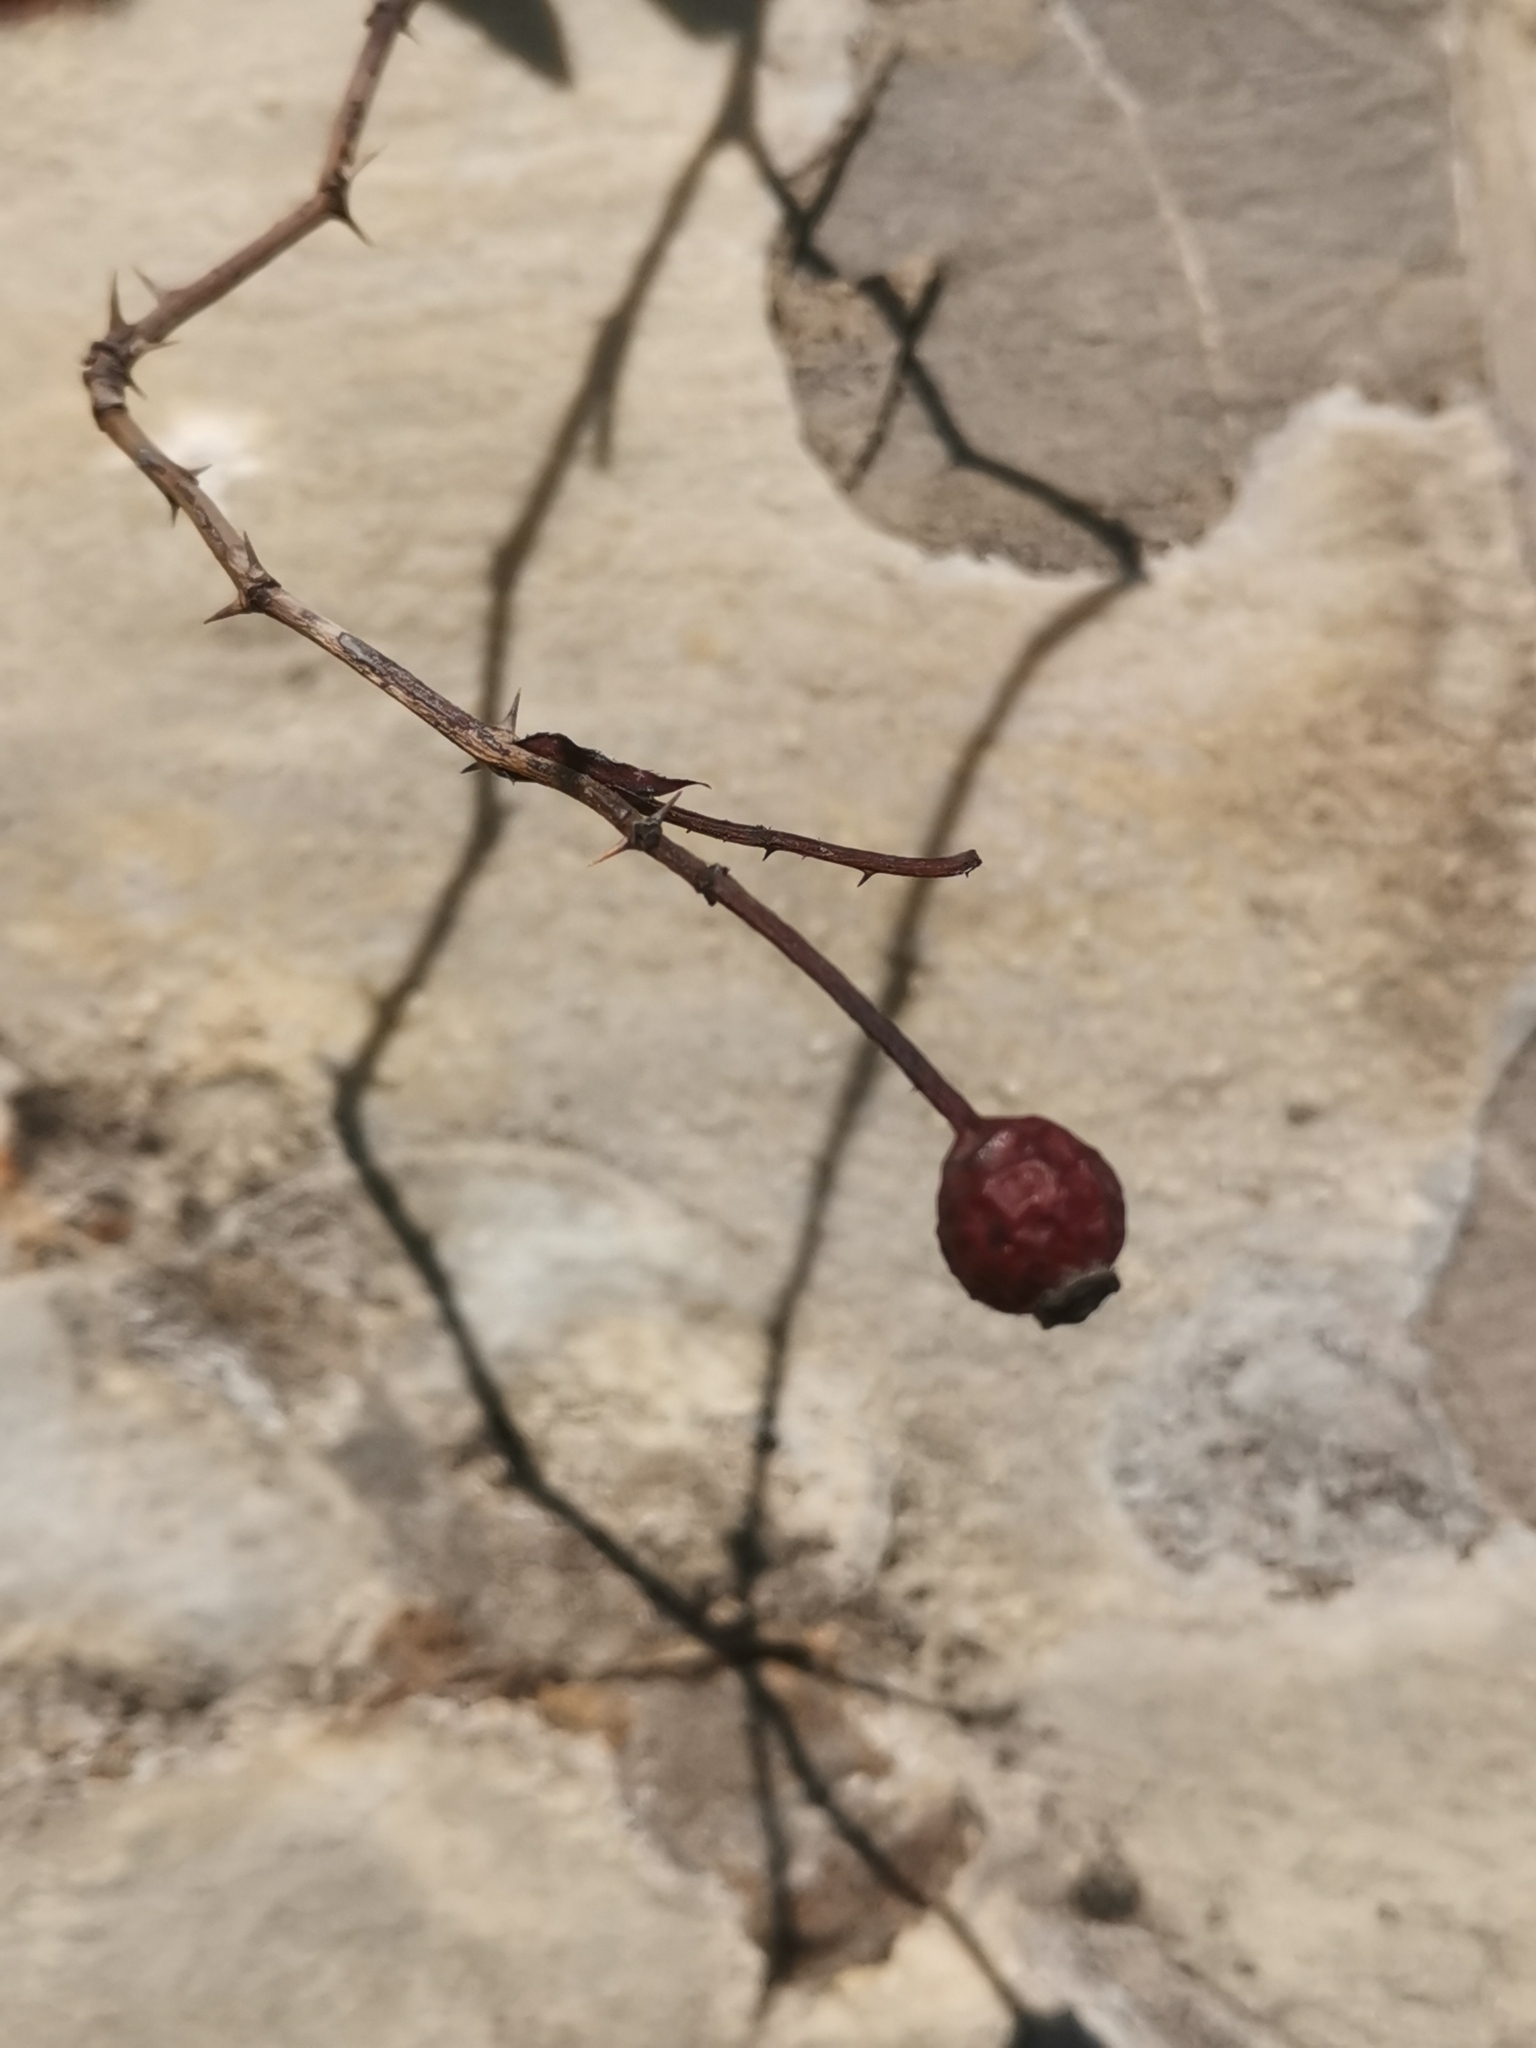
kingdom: Plantae
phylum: Tracheophyta
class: Magnoliopsida
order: Rosales
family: Rosaceae
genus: Rosa
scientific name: Rosa sempervirens
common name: Evergreen rose
